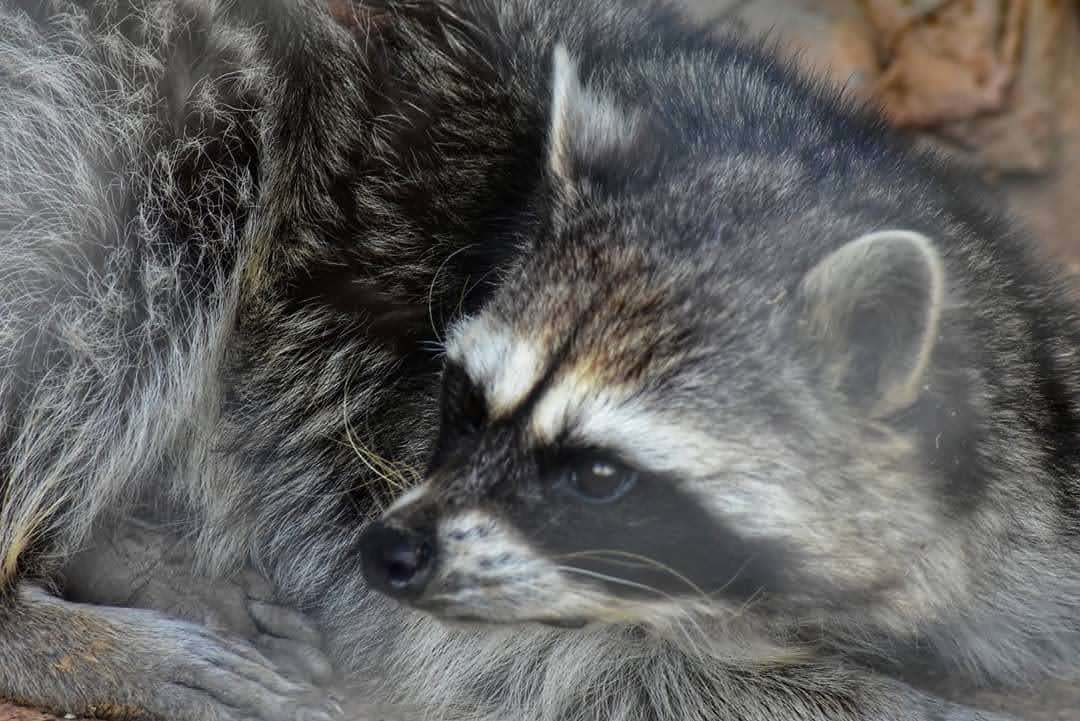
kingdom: Animalia
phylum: Chordata
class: Mammalia
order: Carnivora
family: Procyonidae
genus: Procyon
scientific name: Procyon lotor
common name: Raccoon
